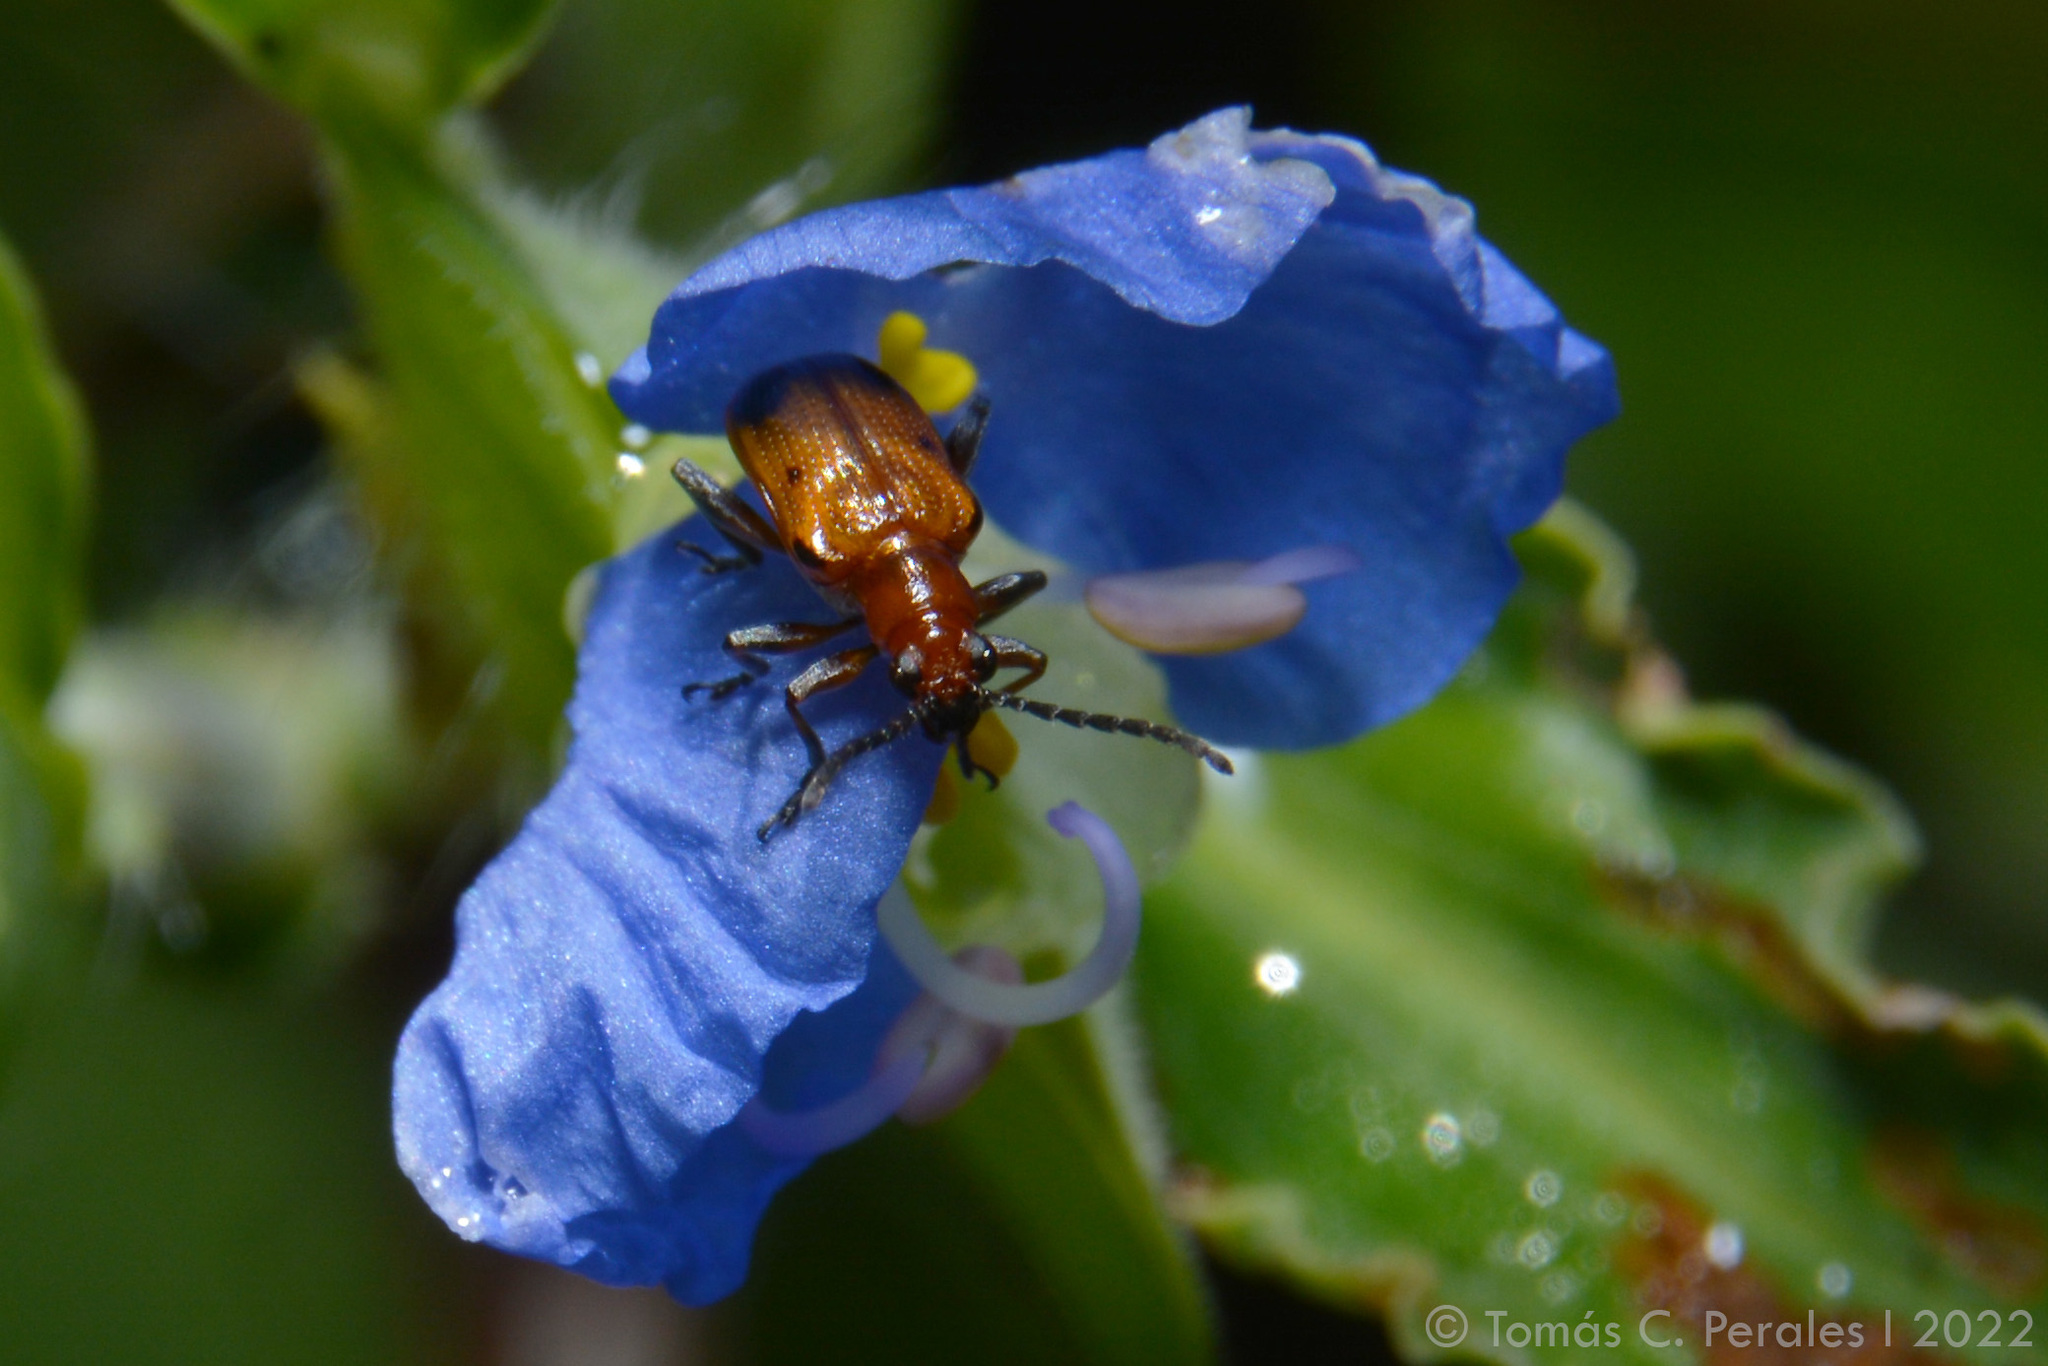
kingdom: Animalia
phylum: Arthropoda
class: Insecta
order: Coleoptera
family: Chrysomelidae
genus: Neolema
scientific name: Neolema dorsalis
